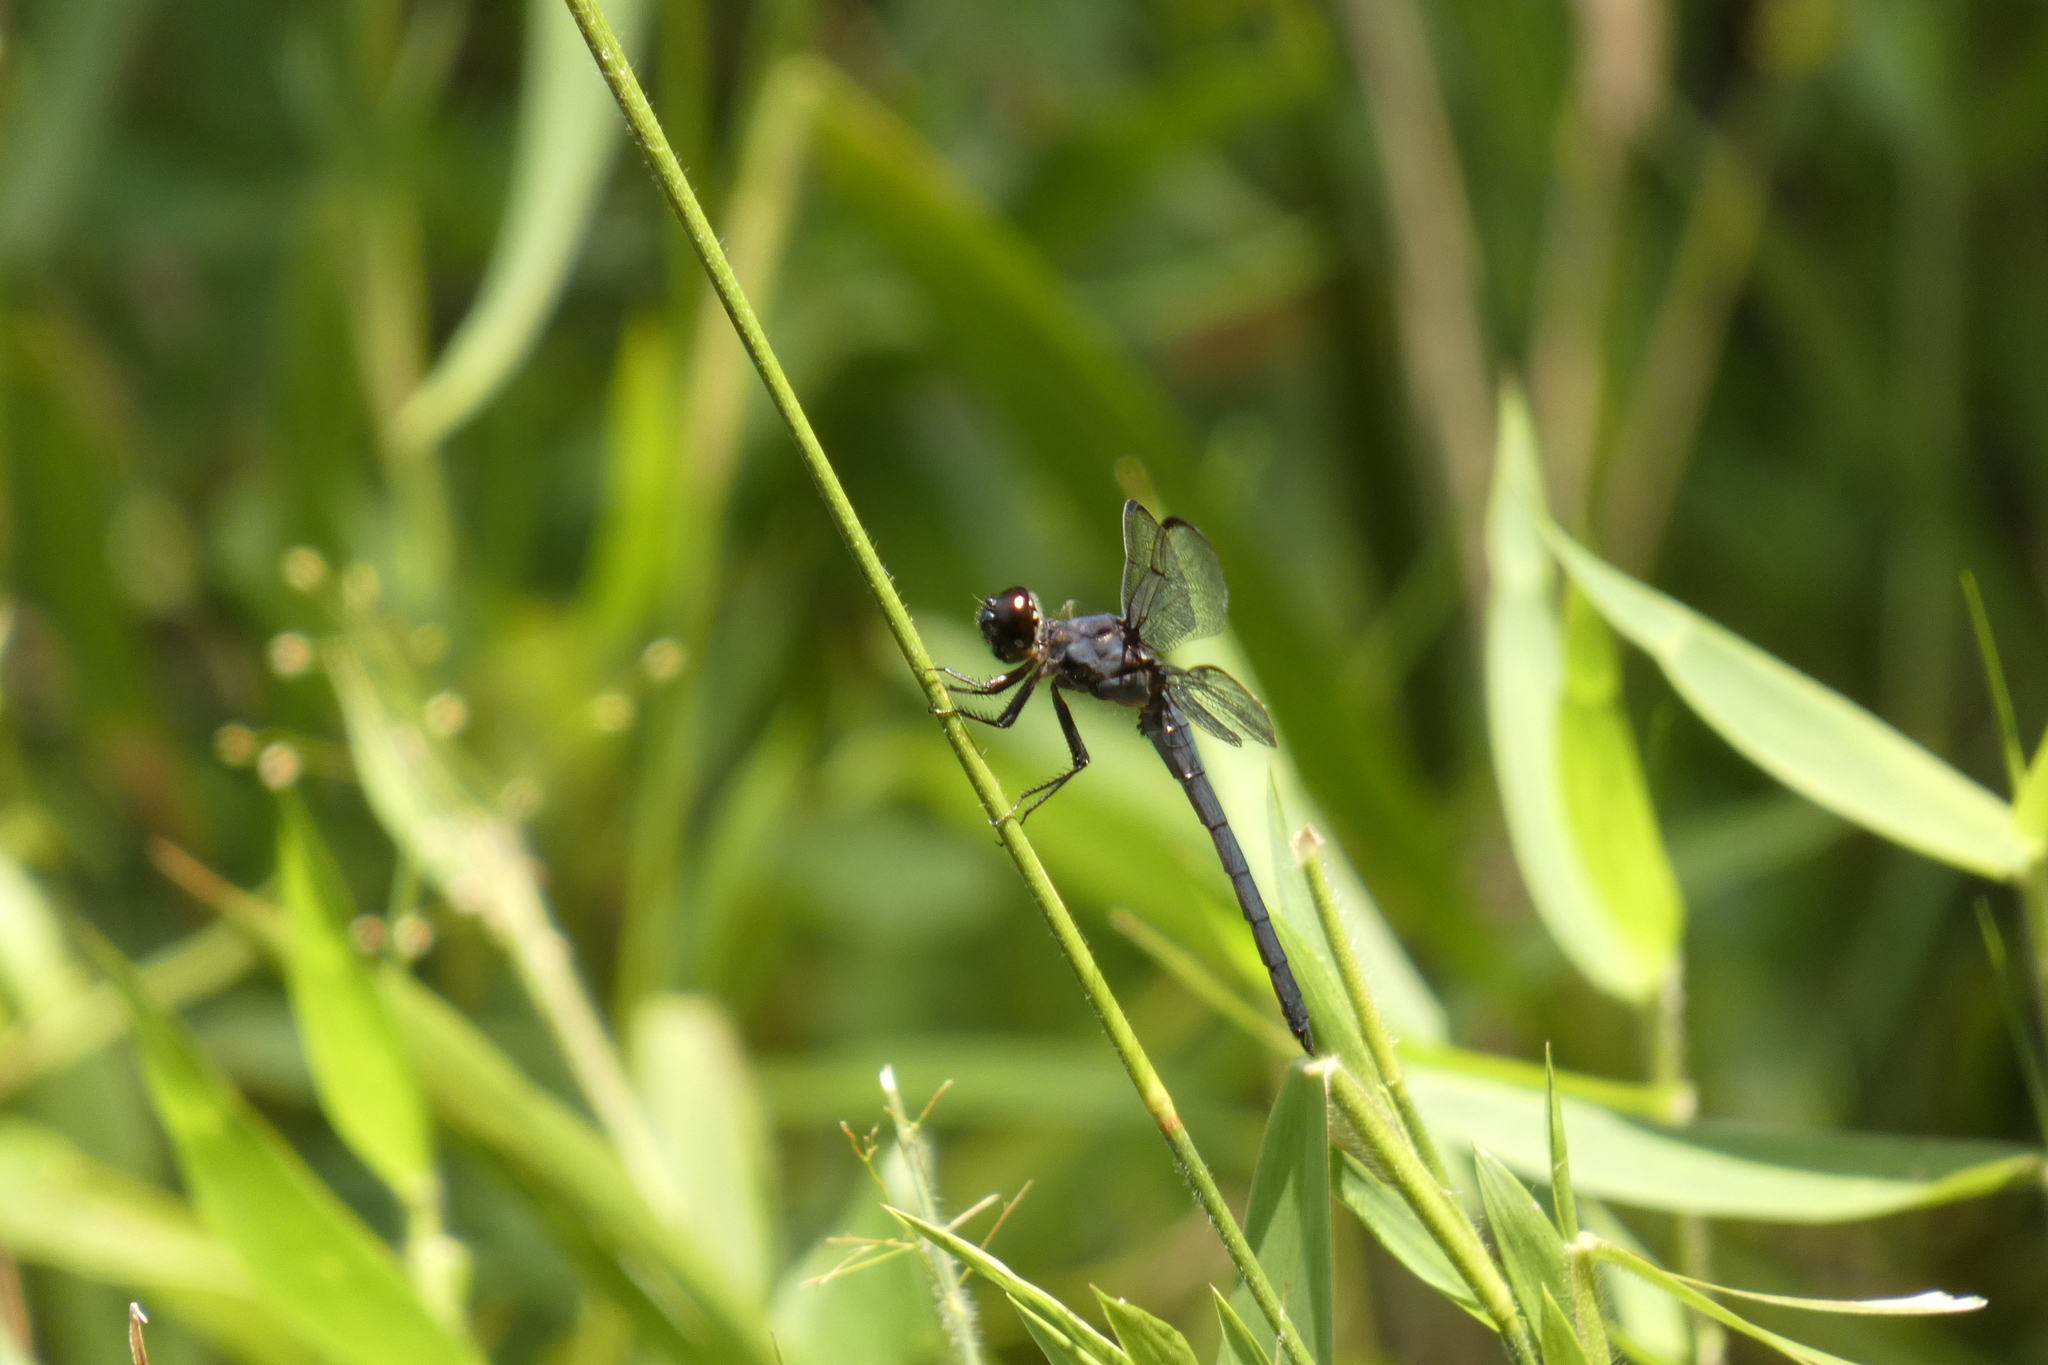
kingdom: Animalia
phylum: Arthropoda
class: Insecta
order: Odonata
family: Libellulidae
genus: Libellula
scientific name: Libellula incesta
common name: Slaty skimmer
